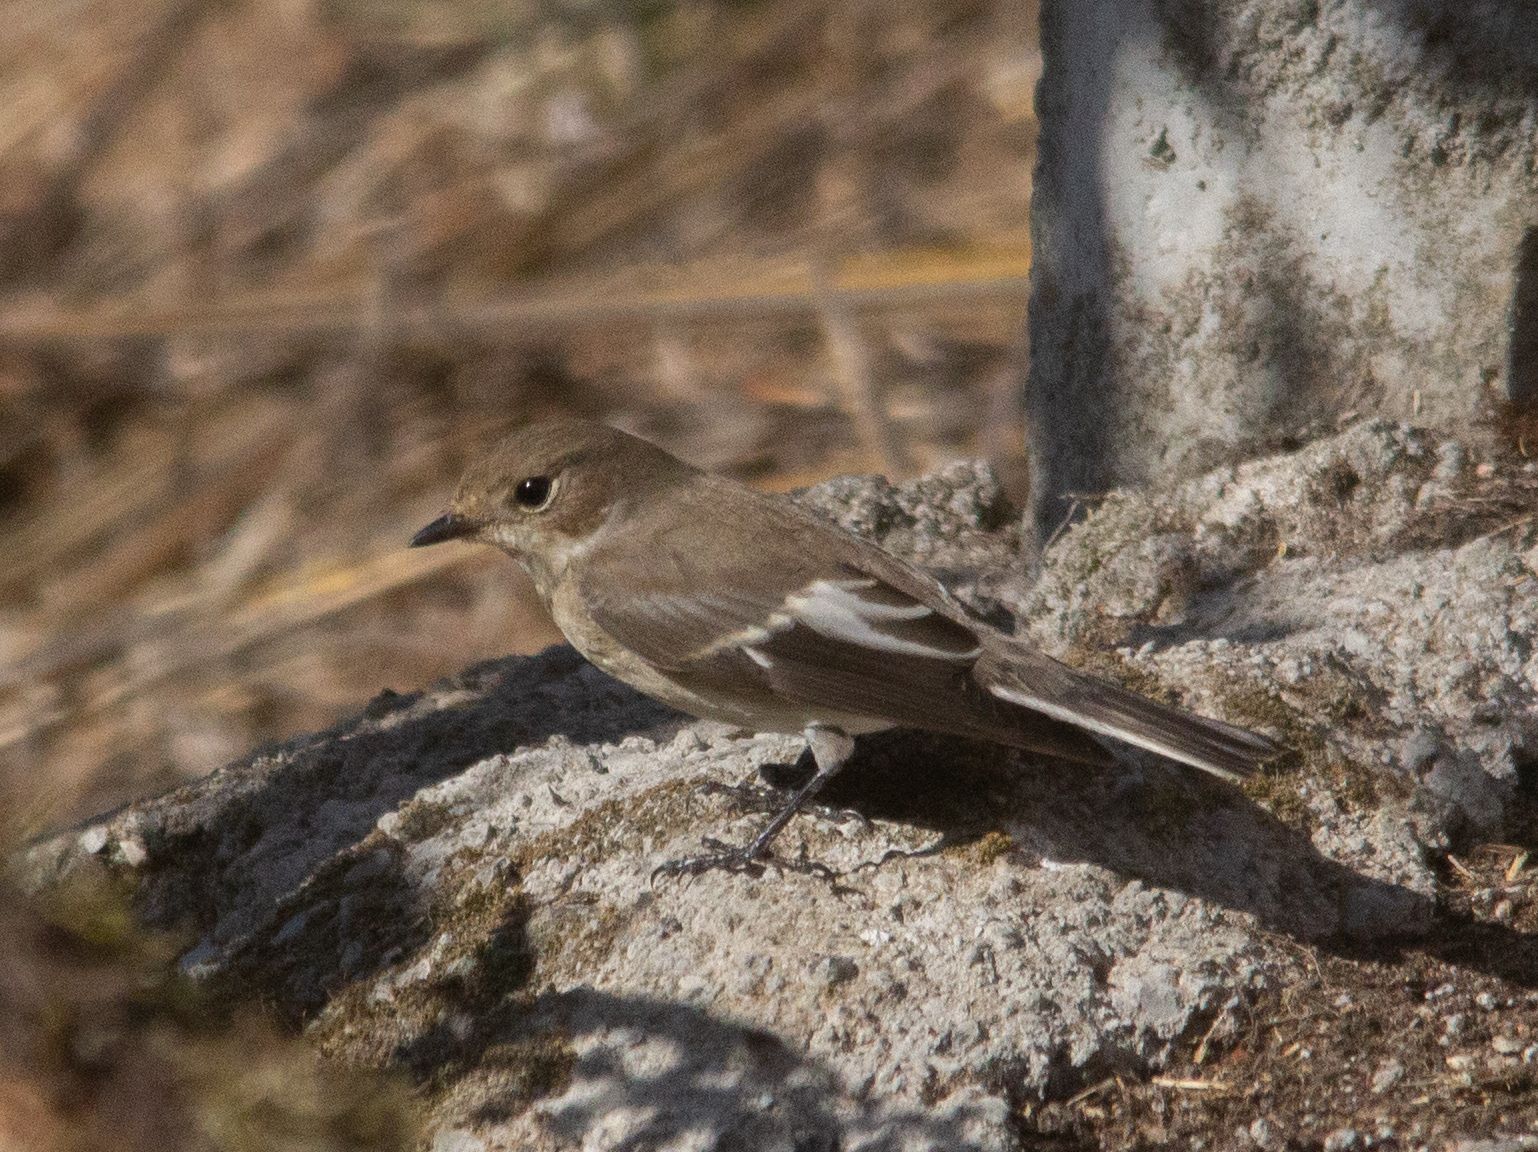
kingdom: Animalia
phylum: Chordata
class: Aves
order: Passeriformes
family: Muscicapidae
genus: Ficedula
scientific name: Ficedula hypoleuca
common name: European pied flycatcher
